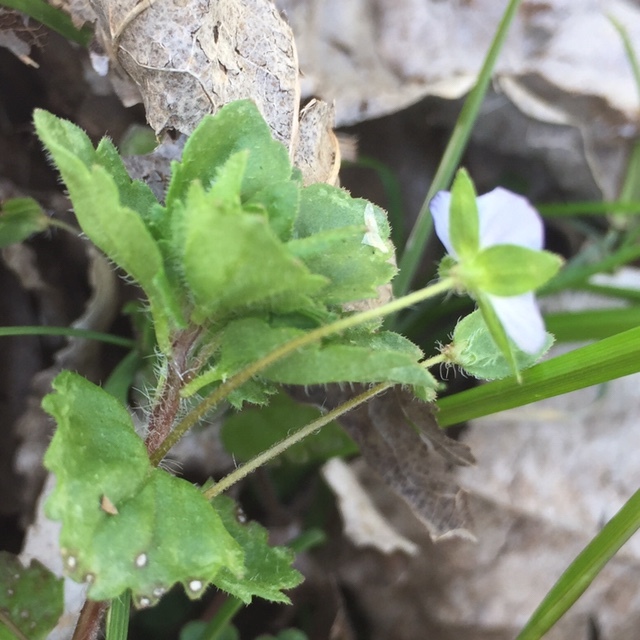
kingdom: Plantae
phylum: Tracheophyta
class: Magnoliopsida
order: Lamiales
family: Plantaginaceae
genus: Veronica
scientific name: Veronica persica
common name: Common field-speedwell
